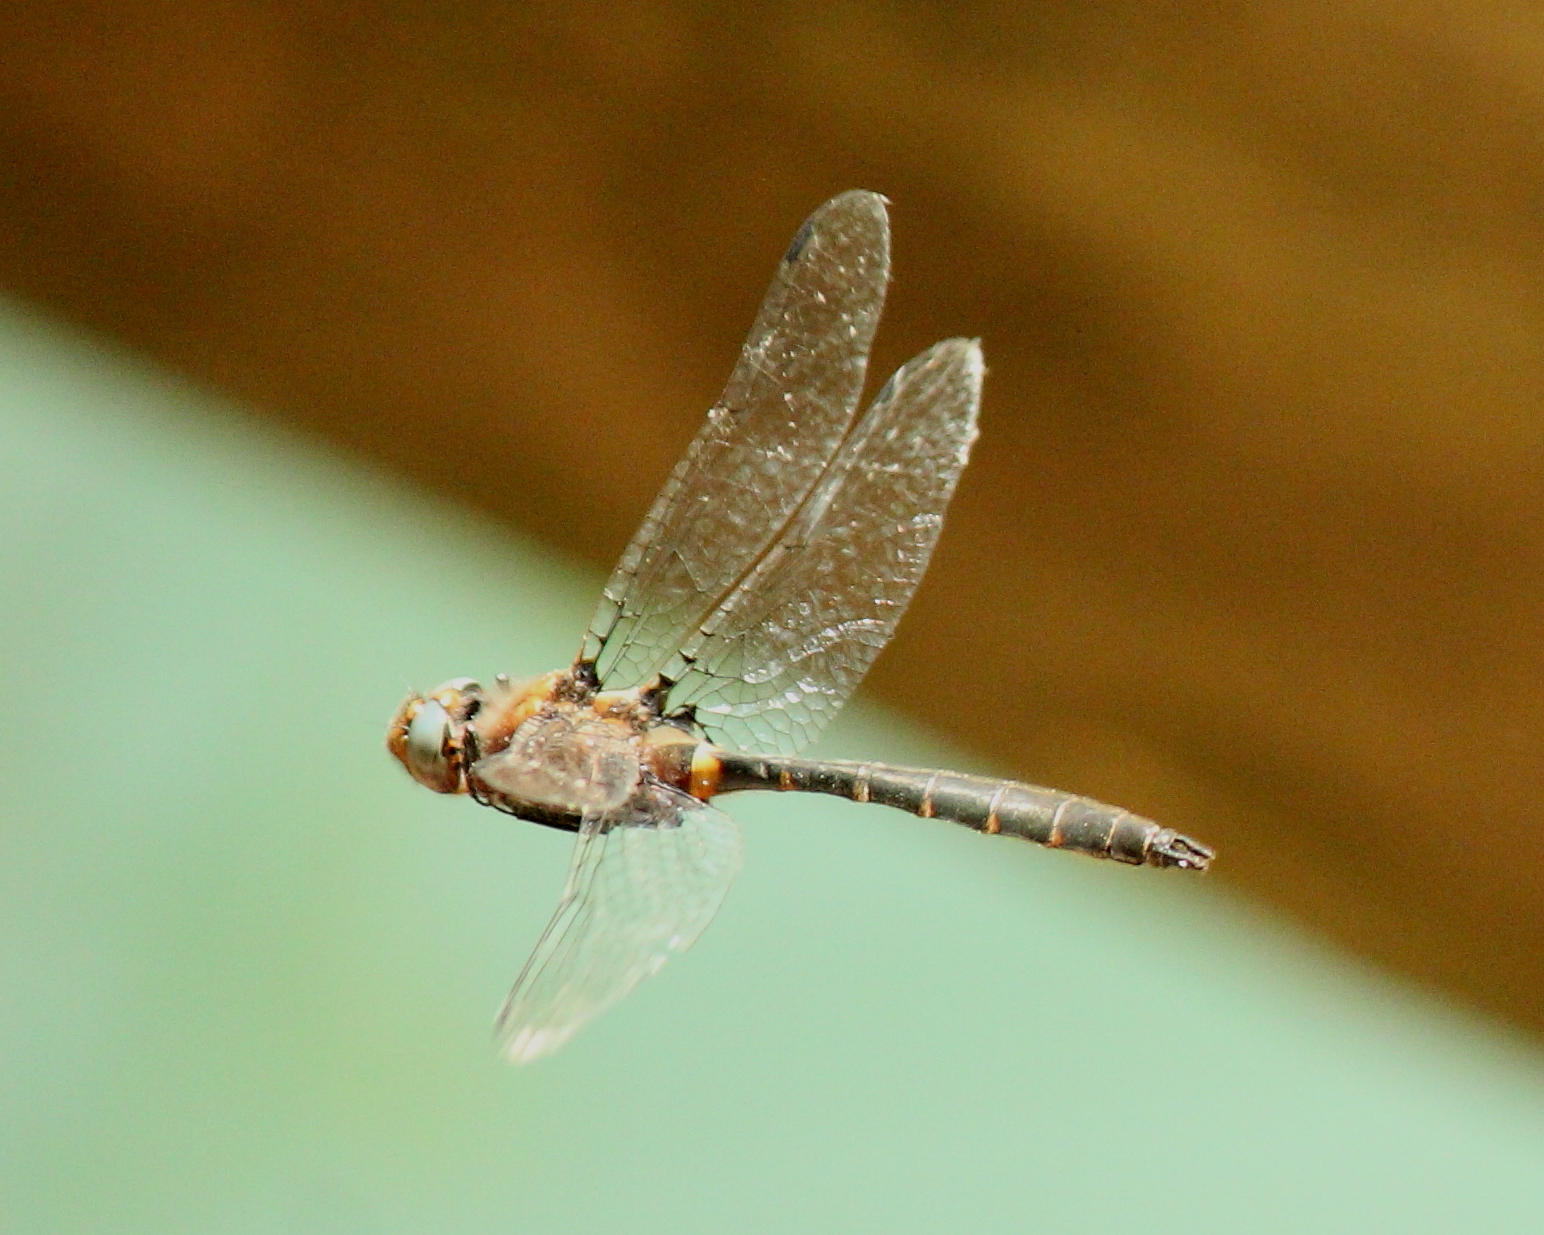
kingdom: Animalia
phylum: Arthropoda
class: Insecta
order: Odonata
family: Corduliidae
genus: Helocordulia
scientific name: Helocordulia selysii
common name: Selys's sundragon
